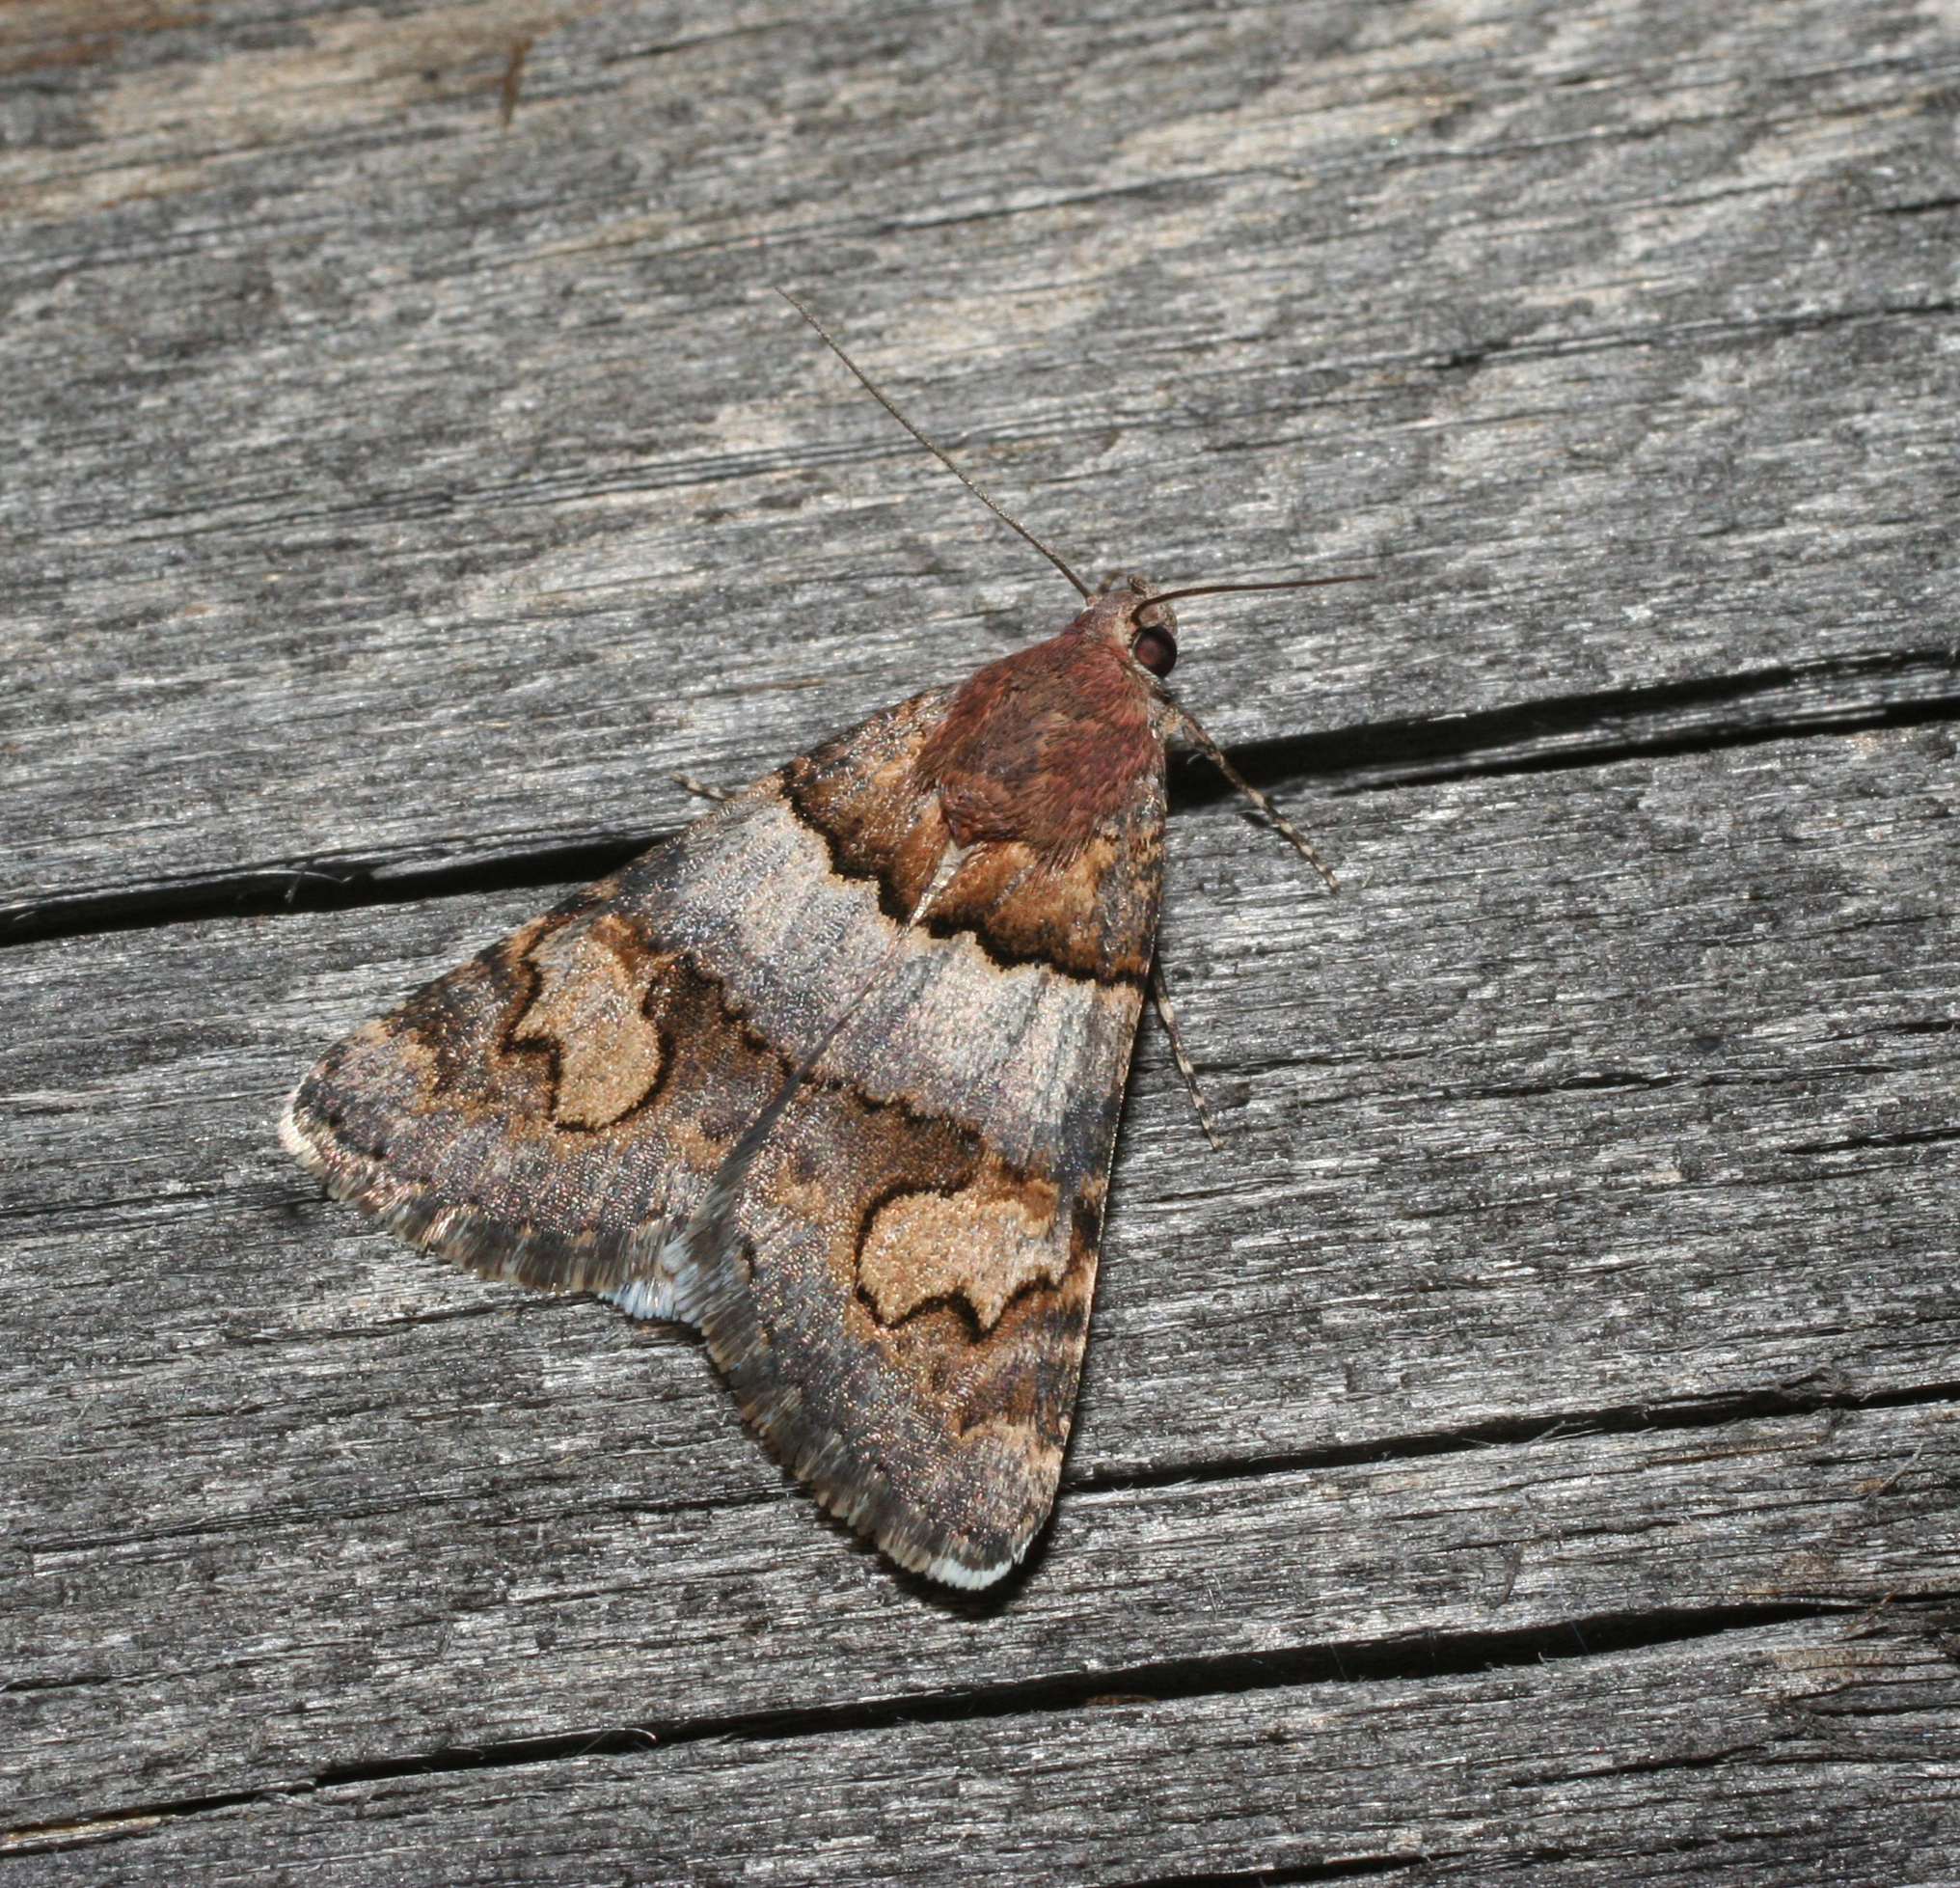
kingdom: Animalia
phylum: Arthropoda
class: Insecta
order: Lepidoptera
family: Erebidae
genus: Drasteria
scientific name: Drasteria rada
